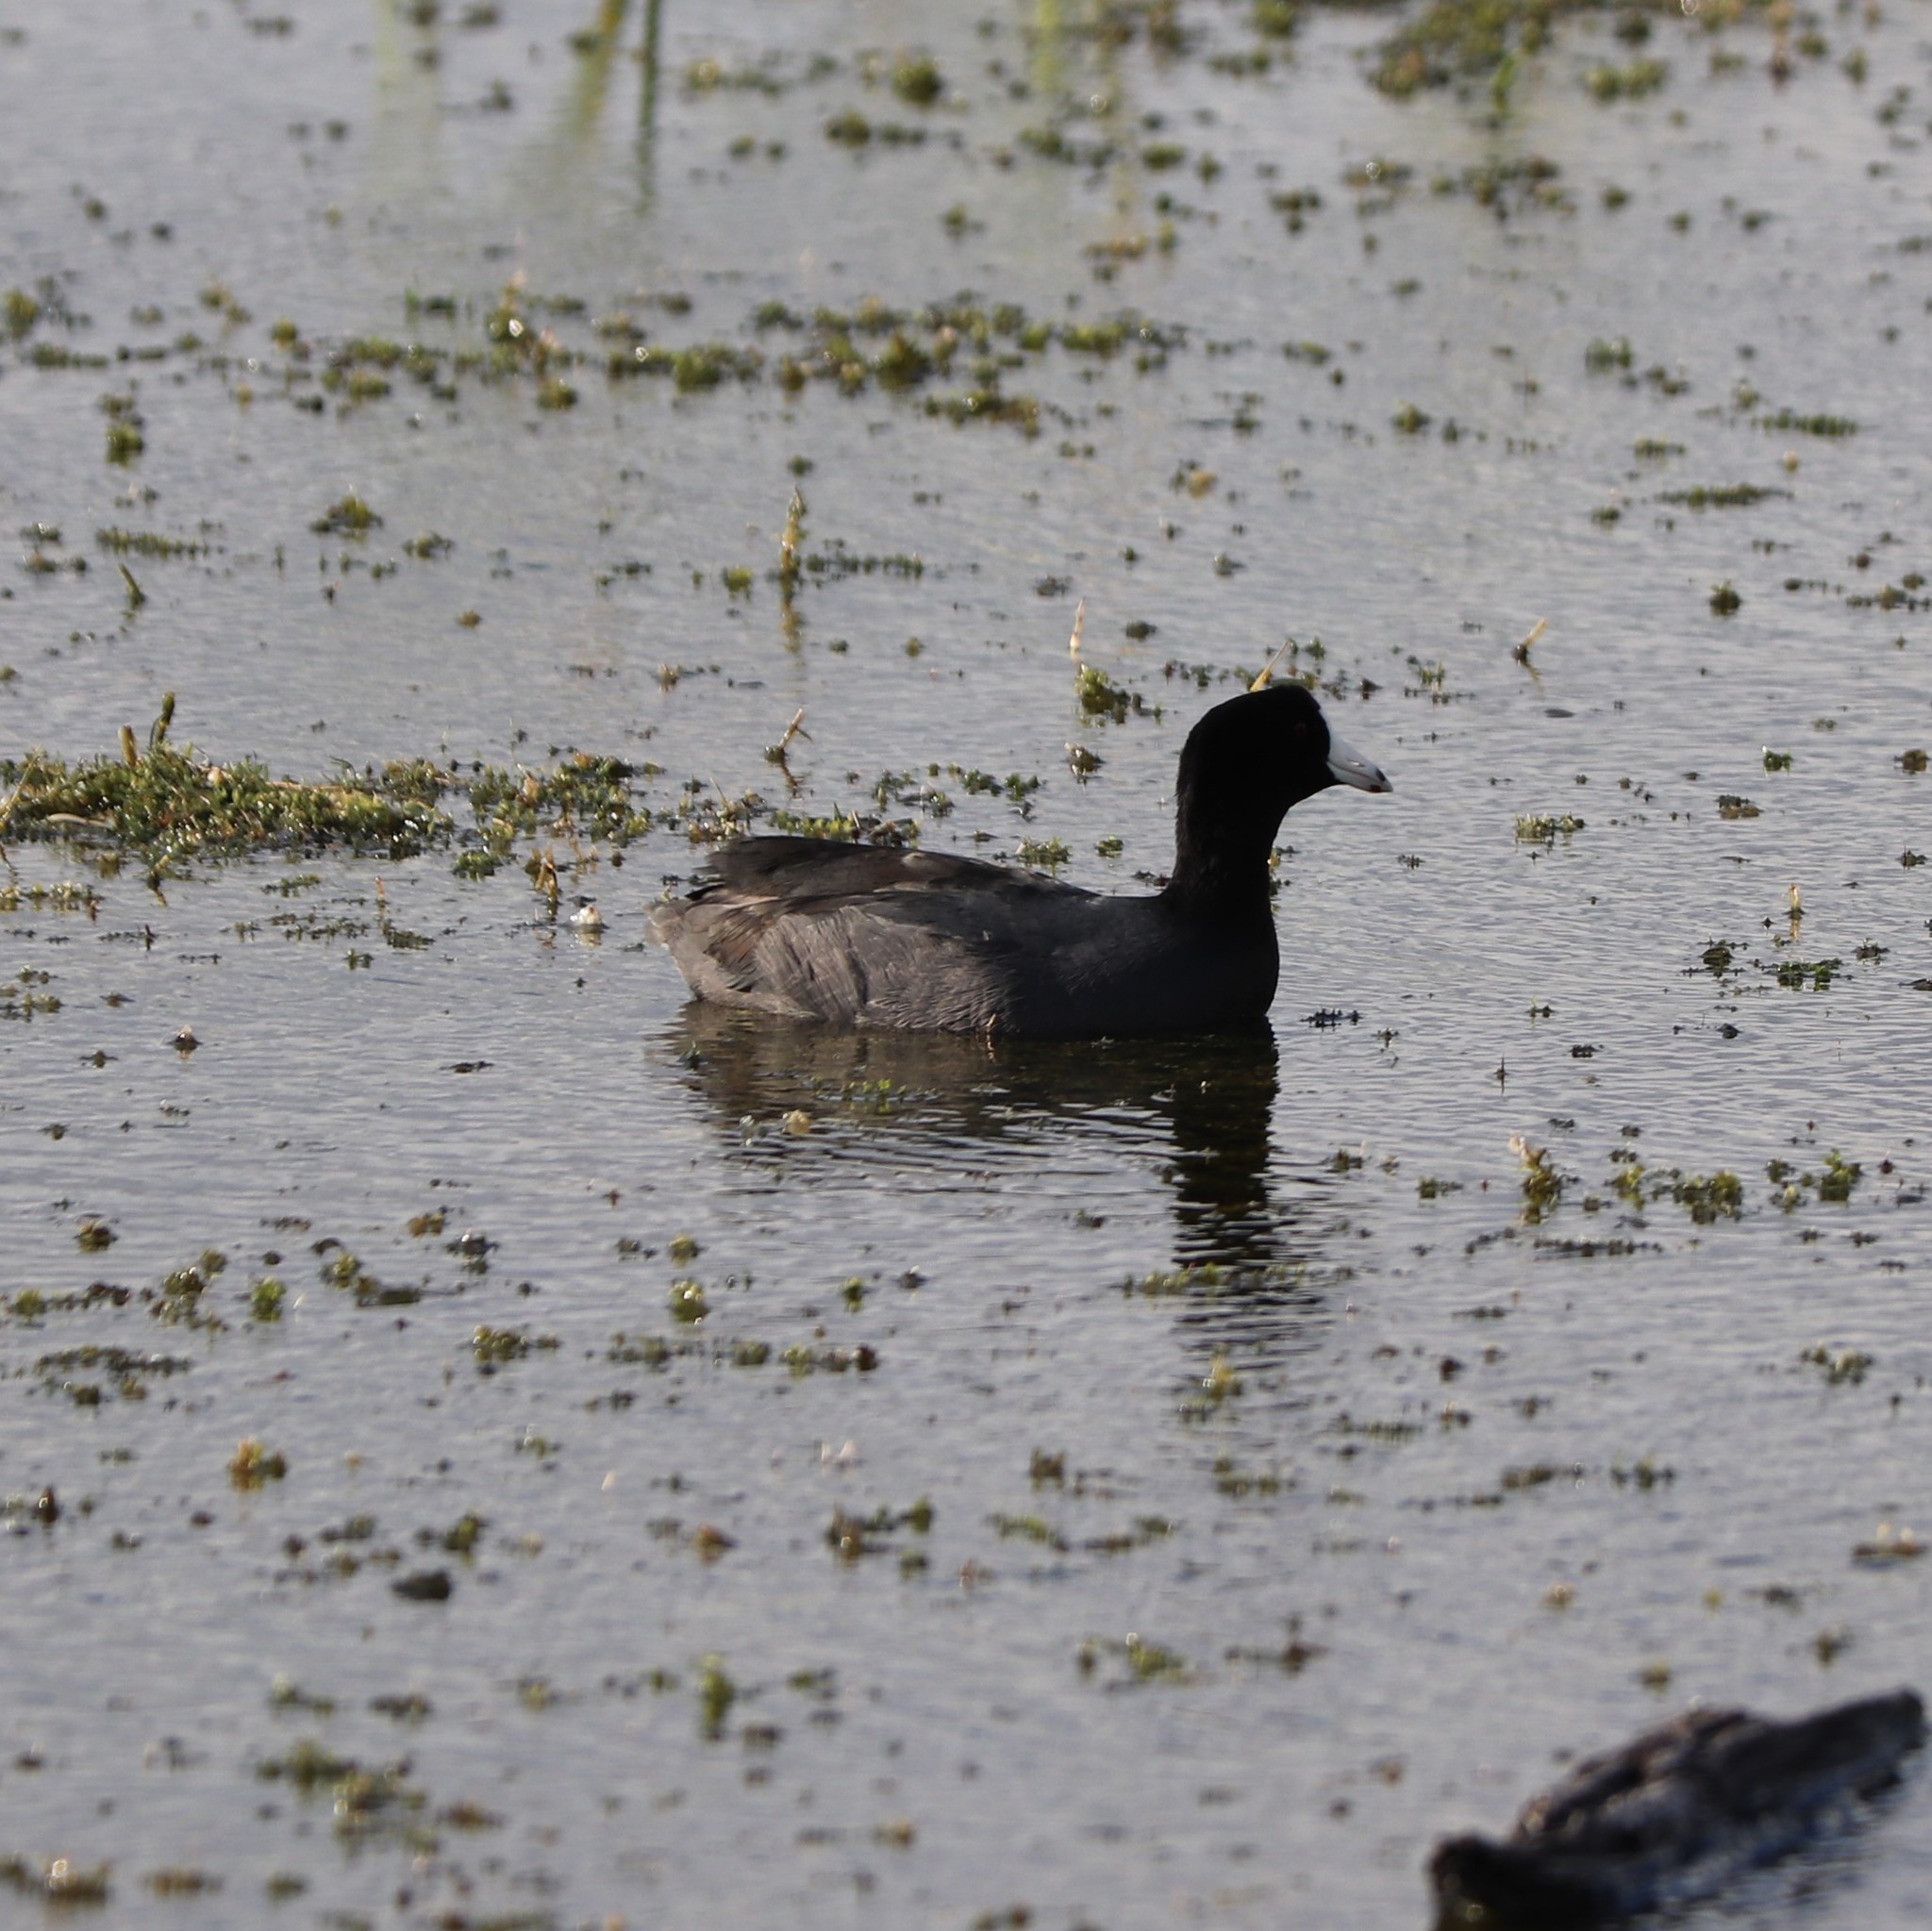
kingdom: Animalia
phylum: Chordata
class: Aves
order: Gruiformes
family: Rallidae
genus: Fulica
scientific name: Fulica americana
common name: American coot
